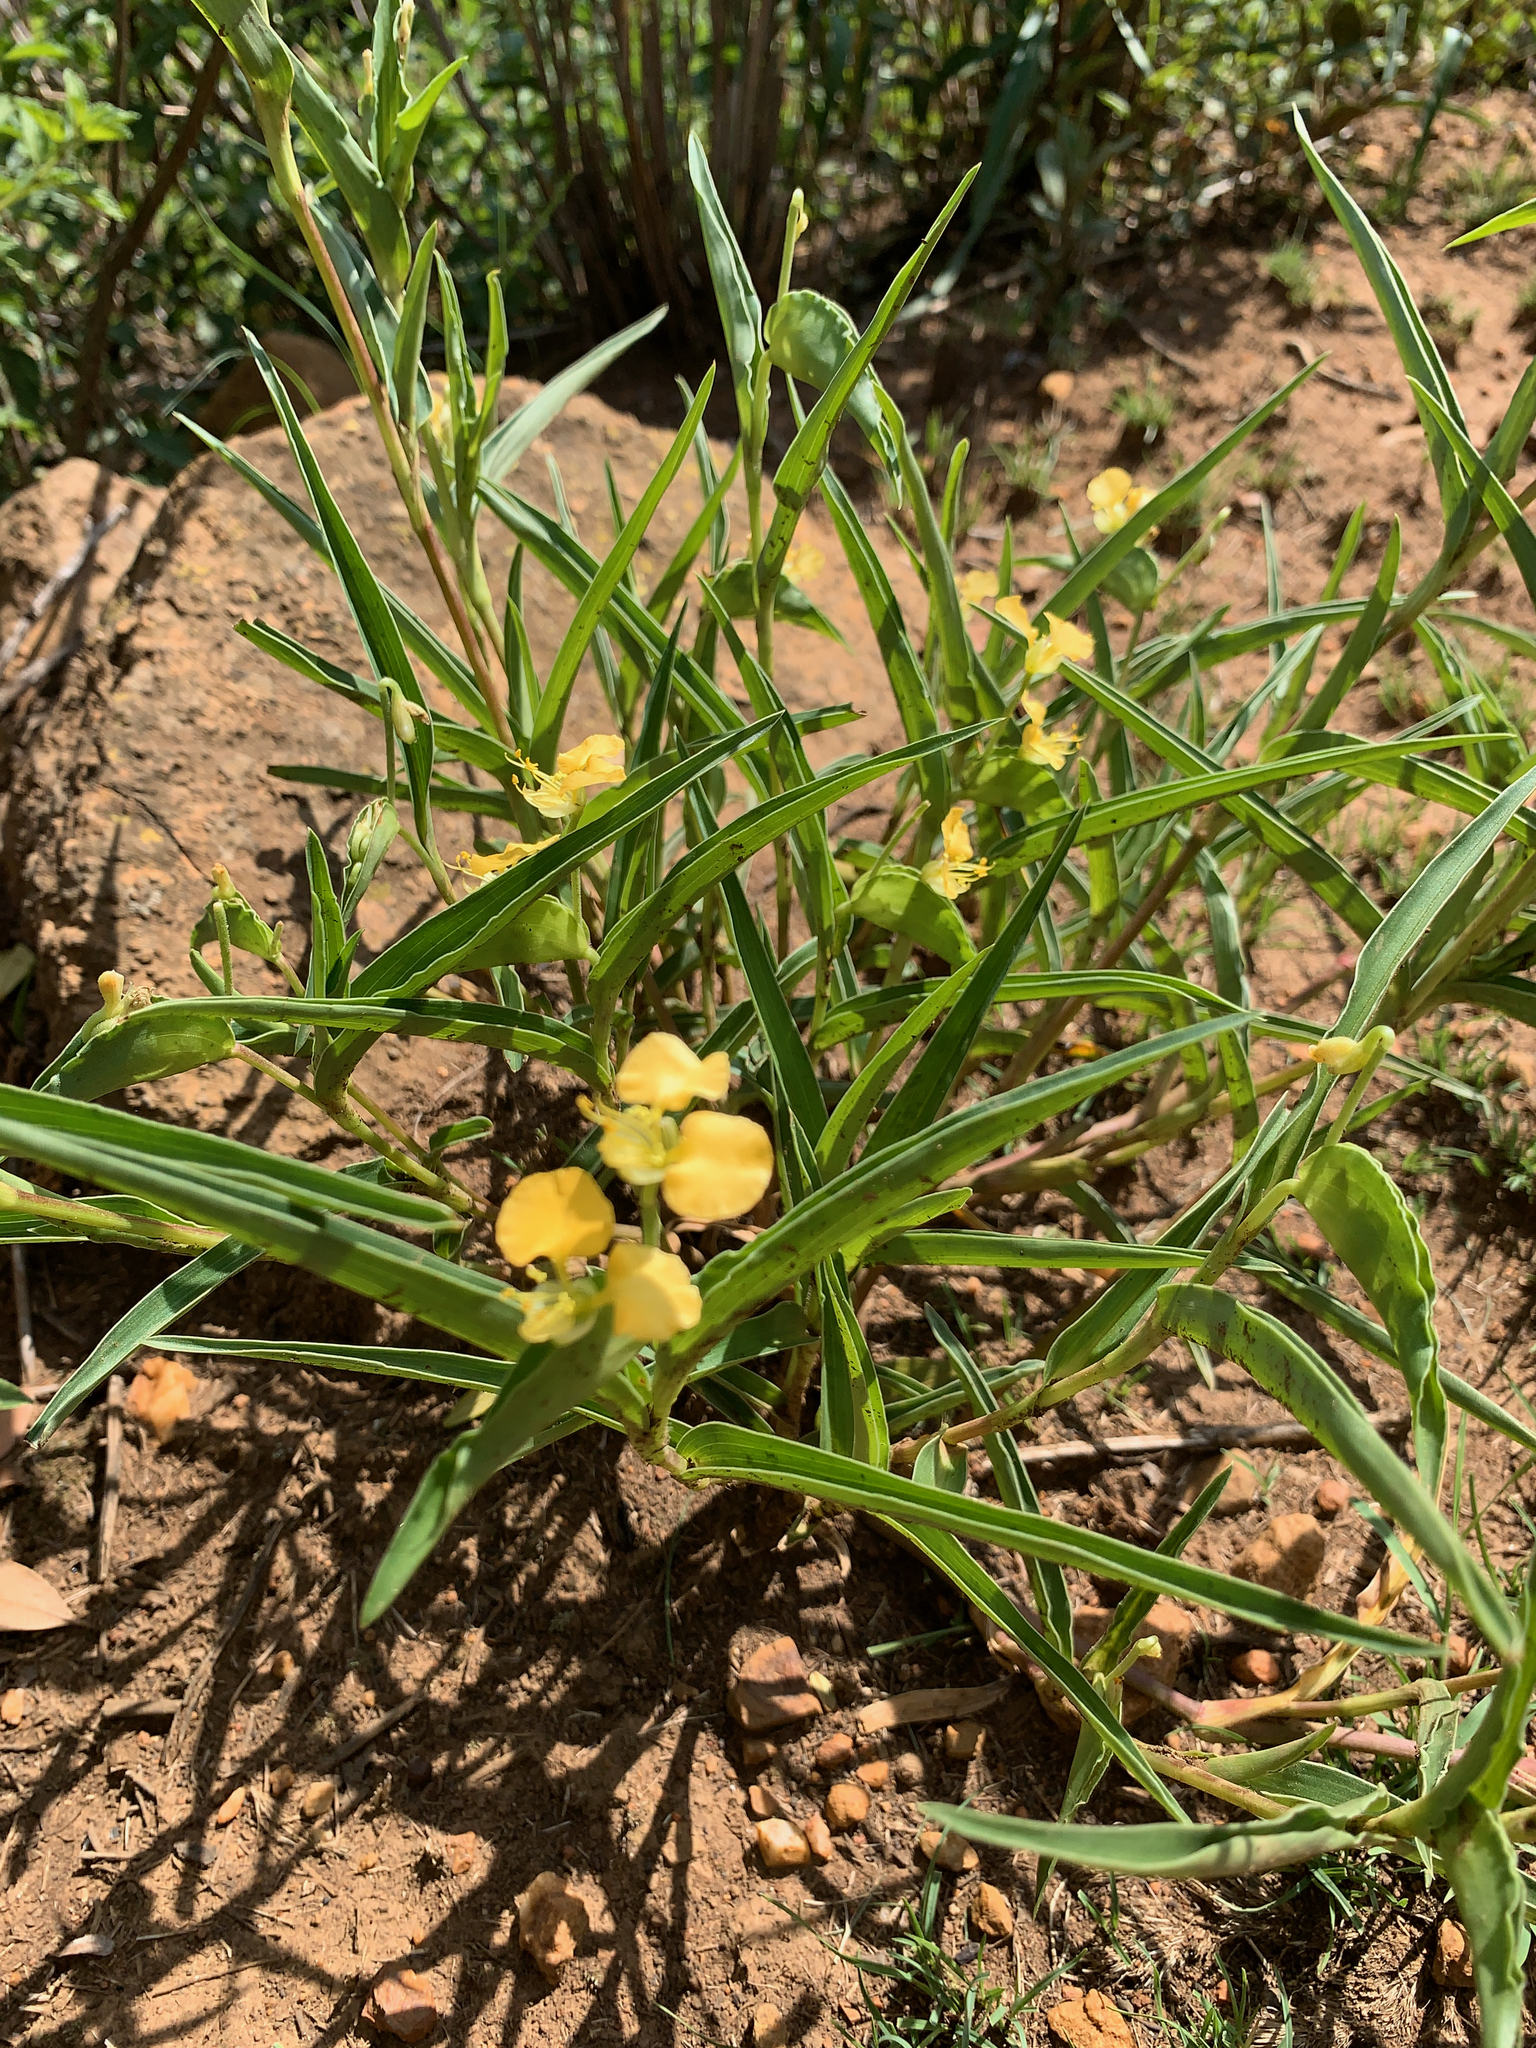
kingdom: Plantae
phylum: Tracheophyta
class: Liliopsida
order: Commelinales
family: Commelinaceae
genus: Commelina
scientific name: Commelina africana
